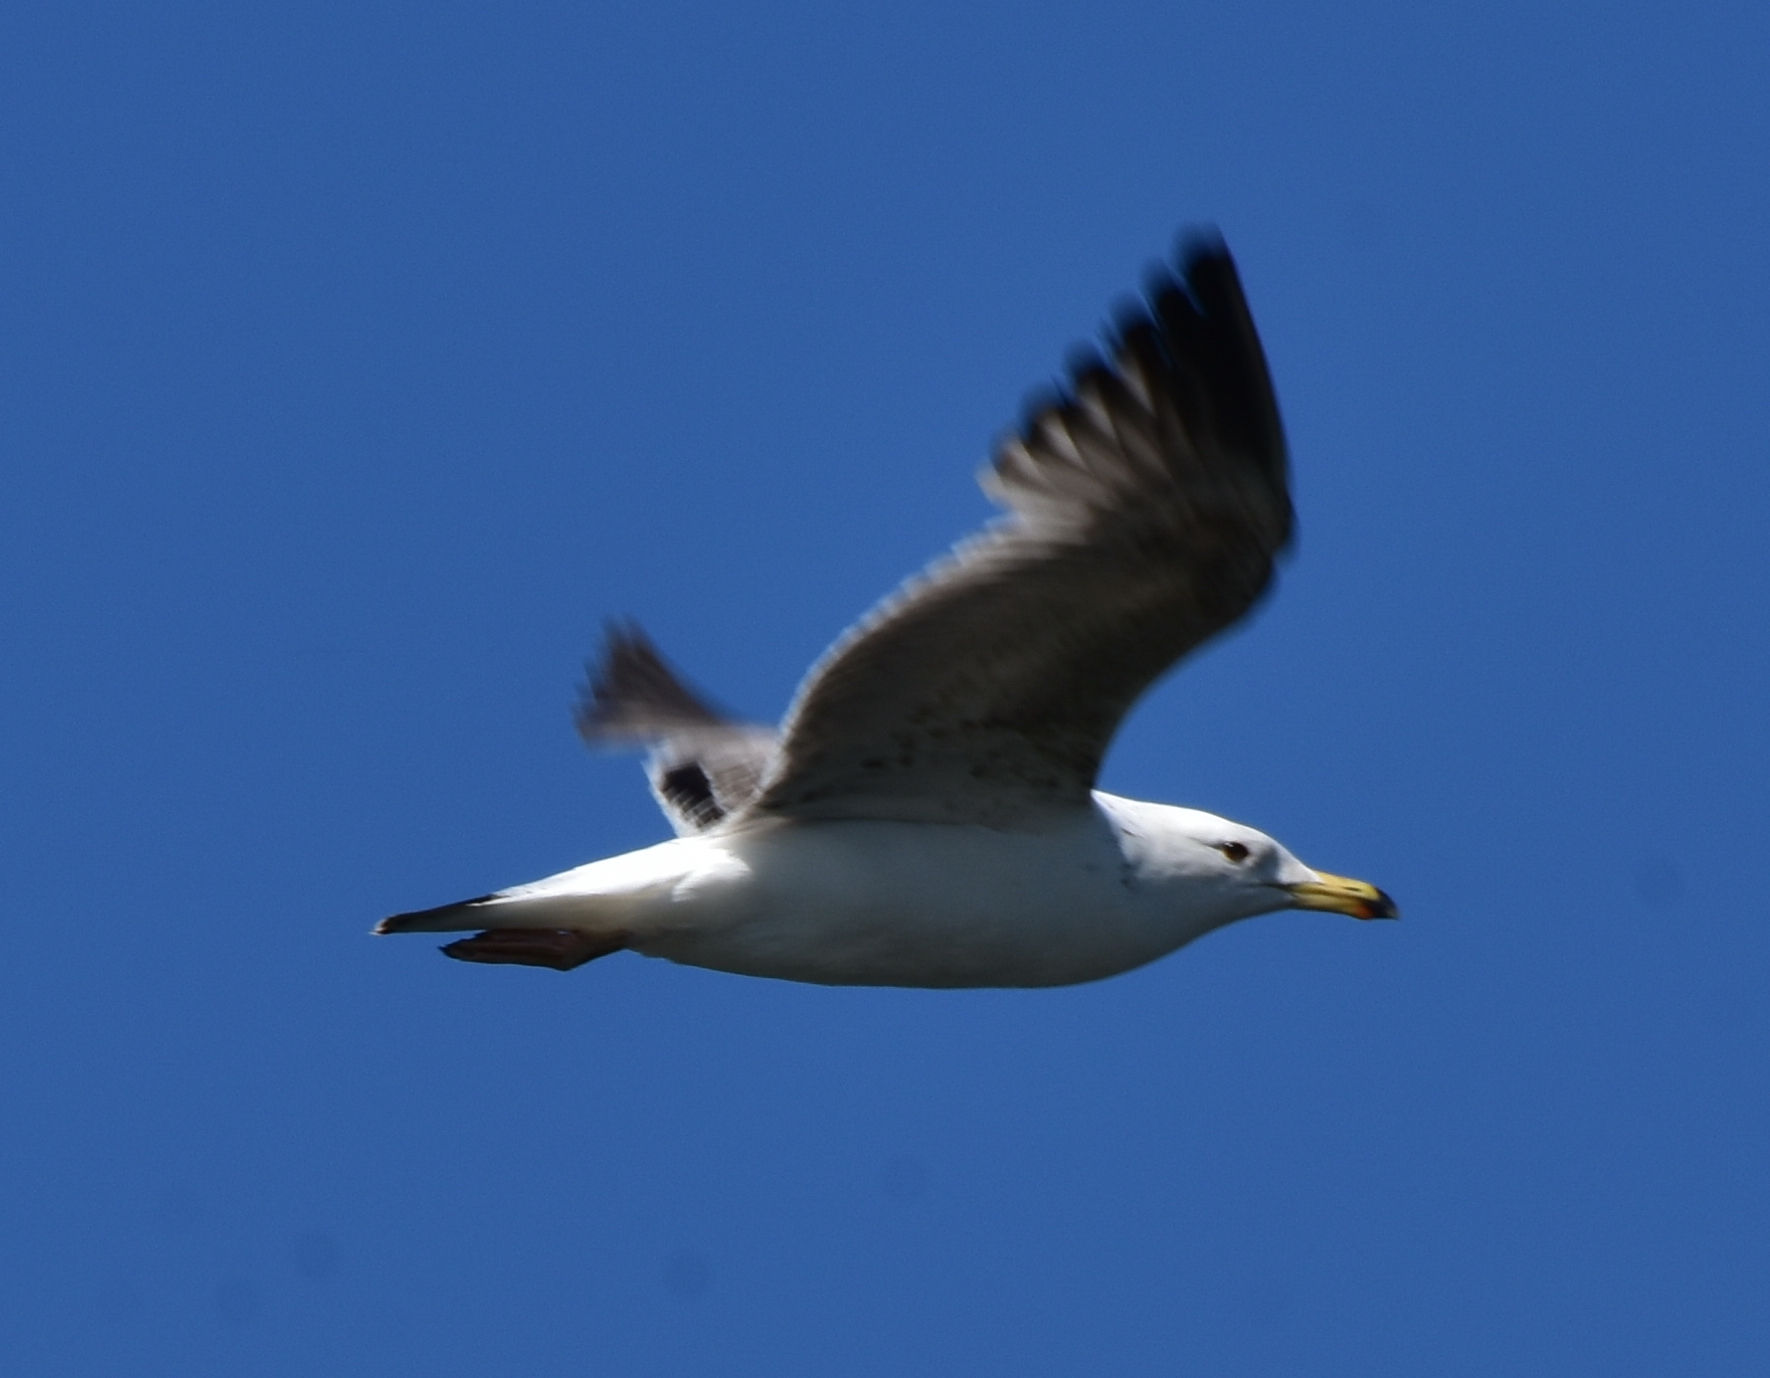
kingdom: Animalia
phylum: Chordata
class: Aves
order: Charadriiformes
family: Laridae
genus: Larus
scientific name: Larus cachinnans
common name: Caspian gull
